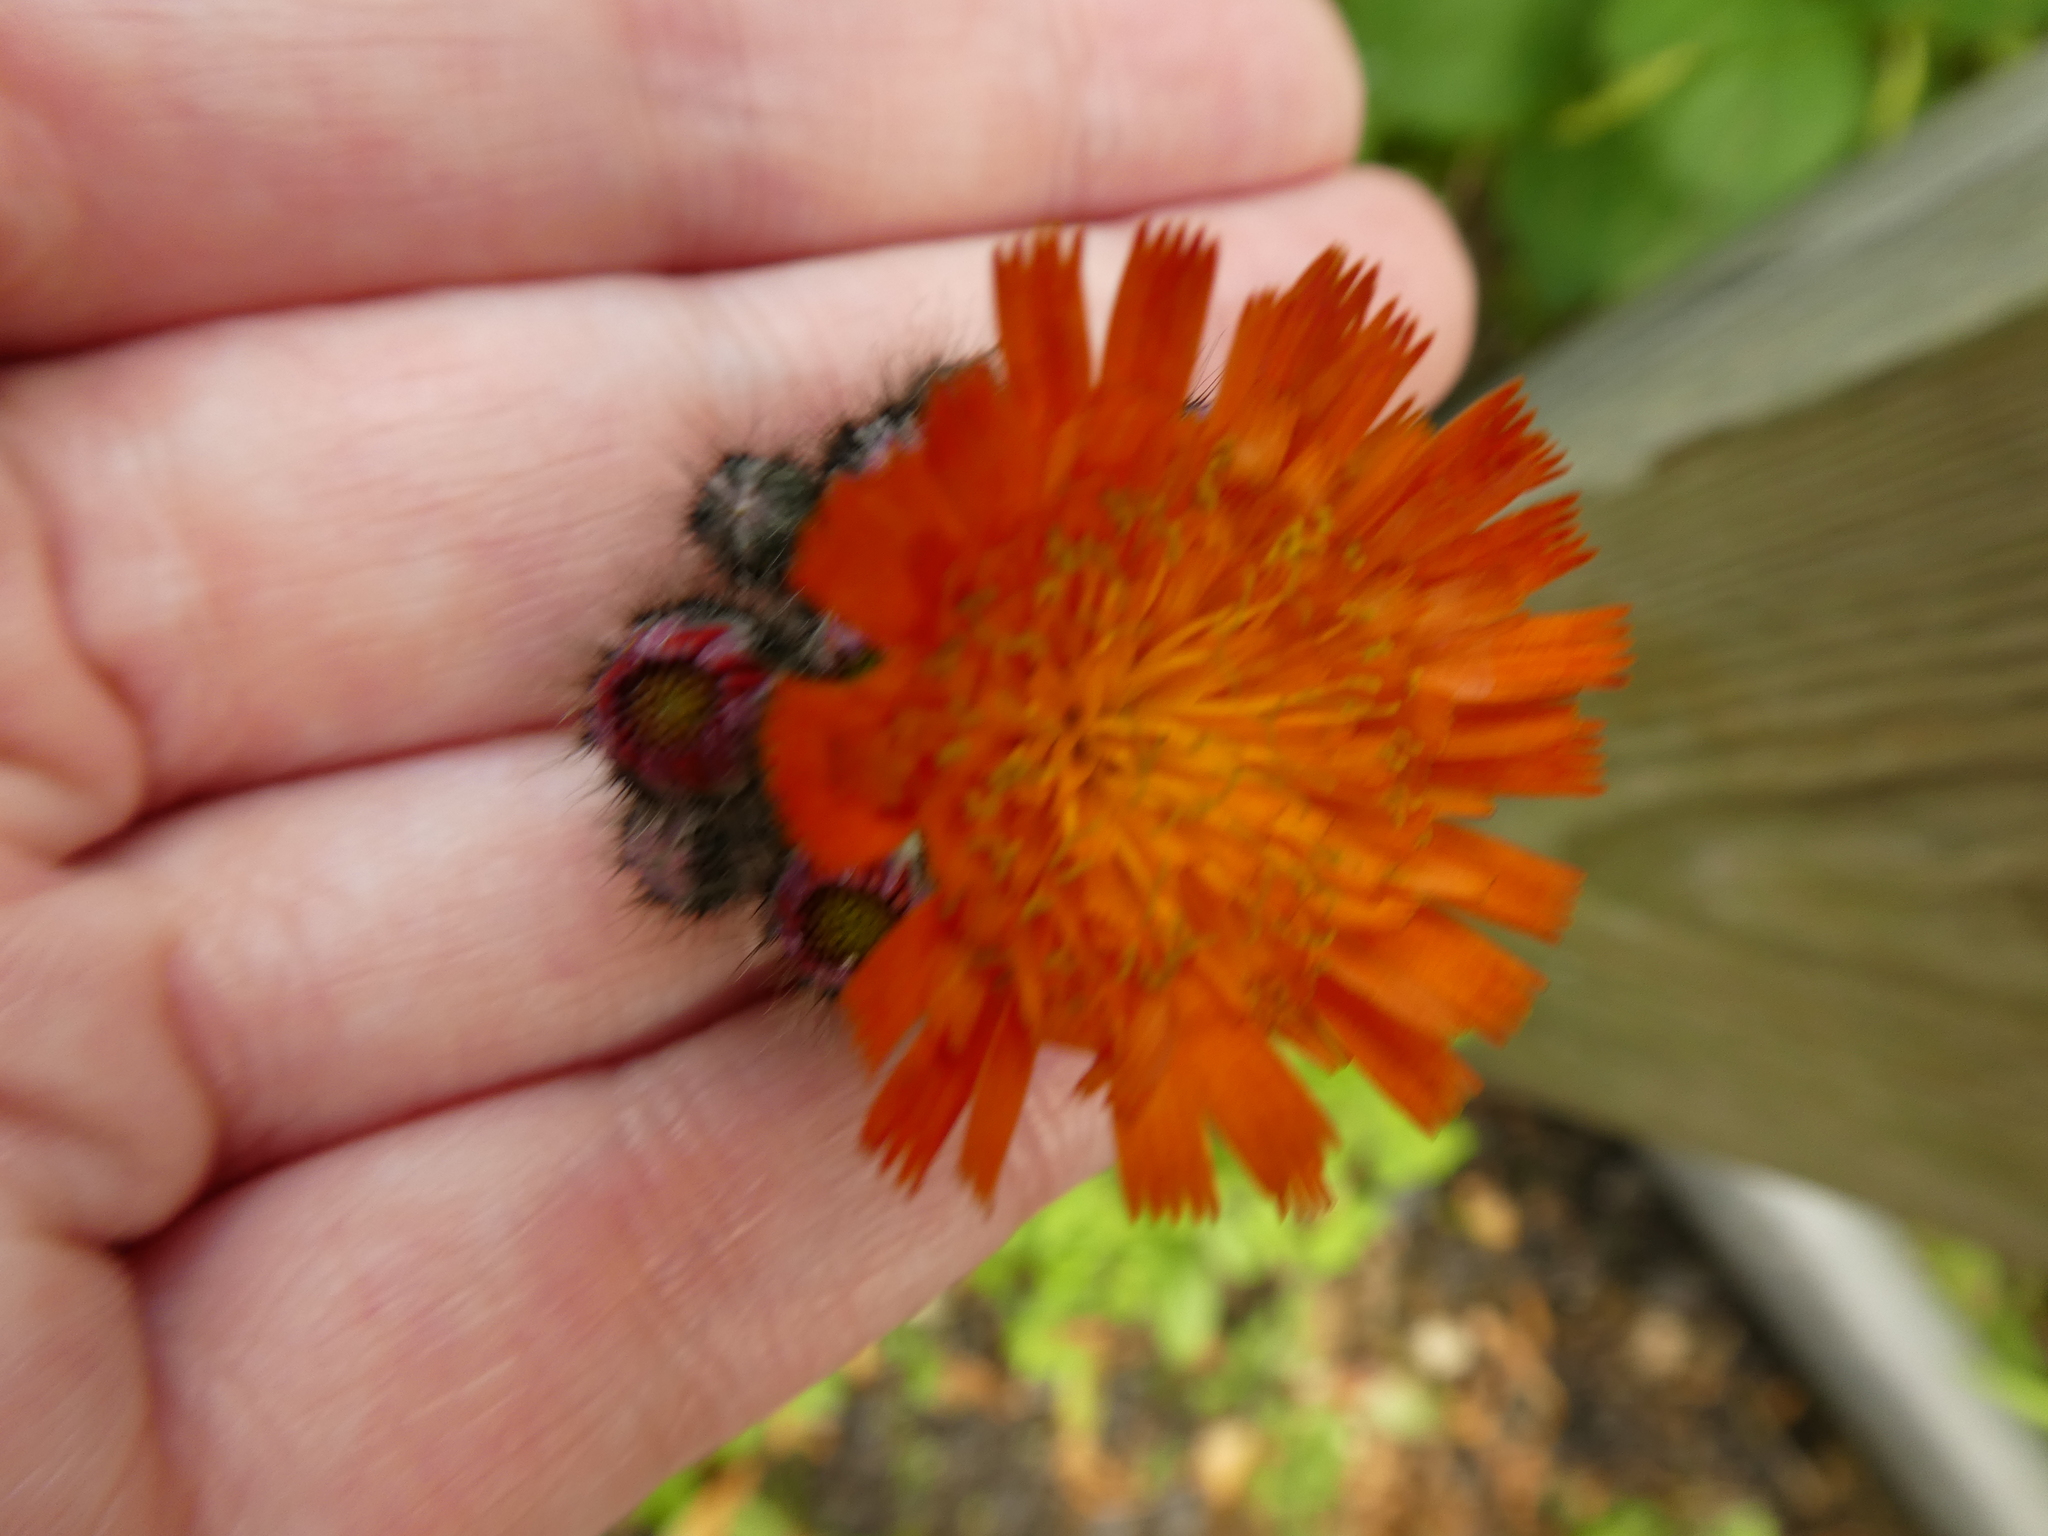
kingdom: Plantae
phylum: Tracheophyta
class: Magnoliopsida
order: Asterales
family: Asteraceae
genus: Pilosella
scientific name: Pilosella aurantiaca
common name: Fox-and-cubs
